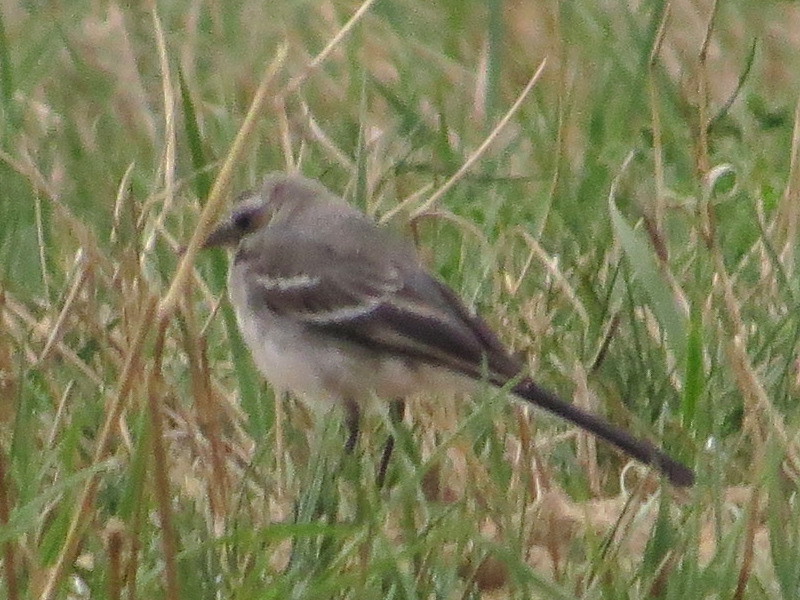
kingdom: Animalia
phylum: Chordata
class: Aves
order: Passeriformes
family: Motacillidae
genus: Motacilla
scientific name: Motacilla alba
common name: White wagtail
